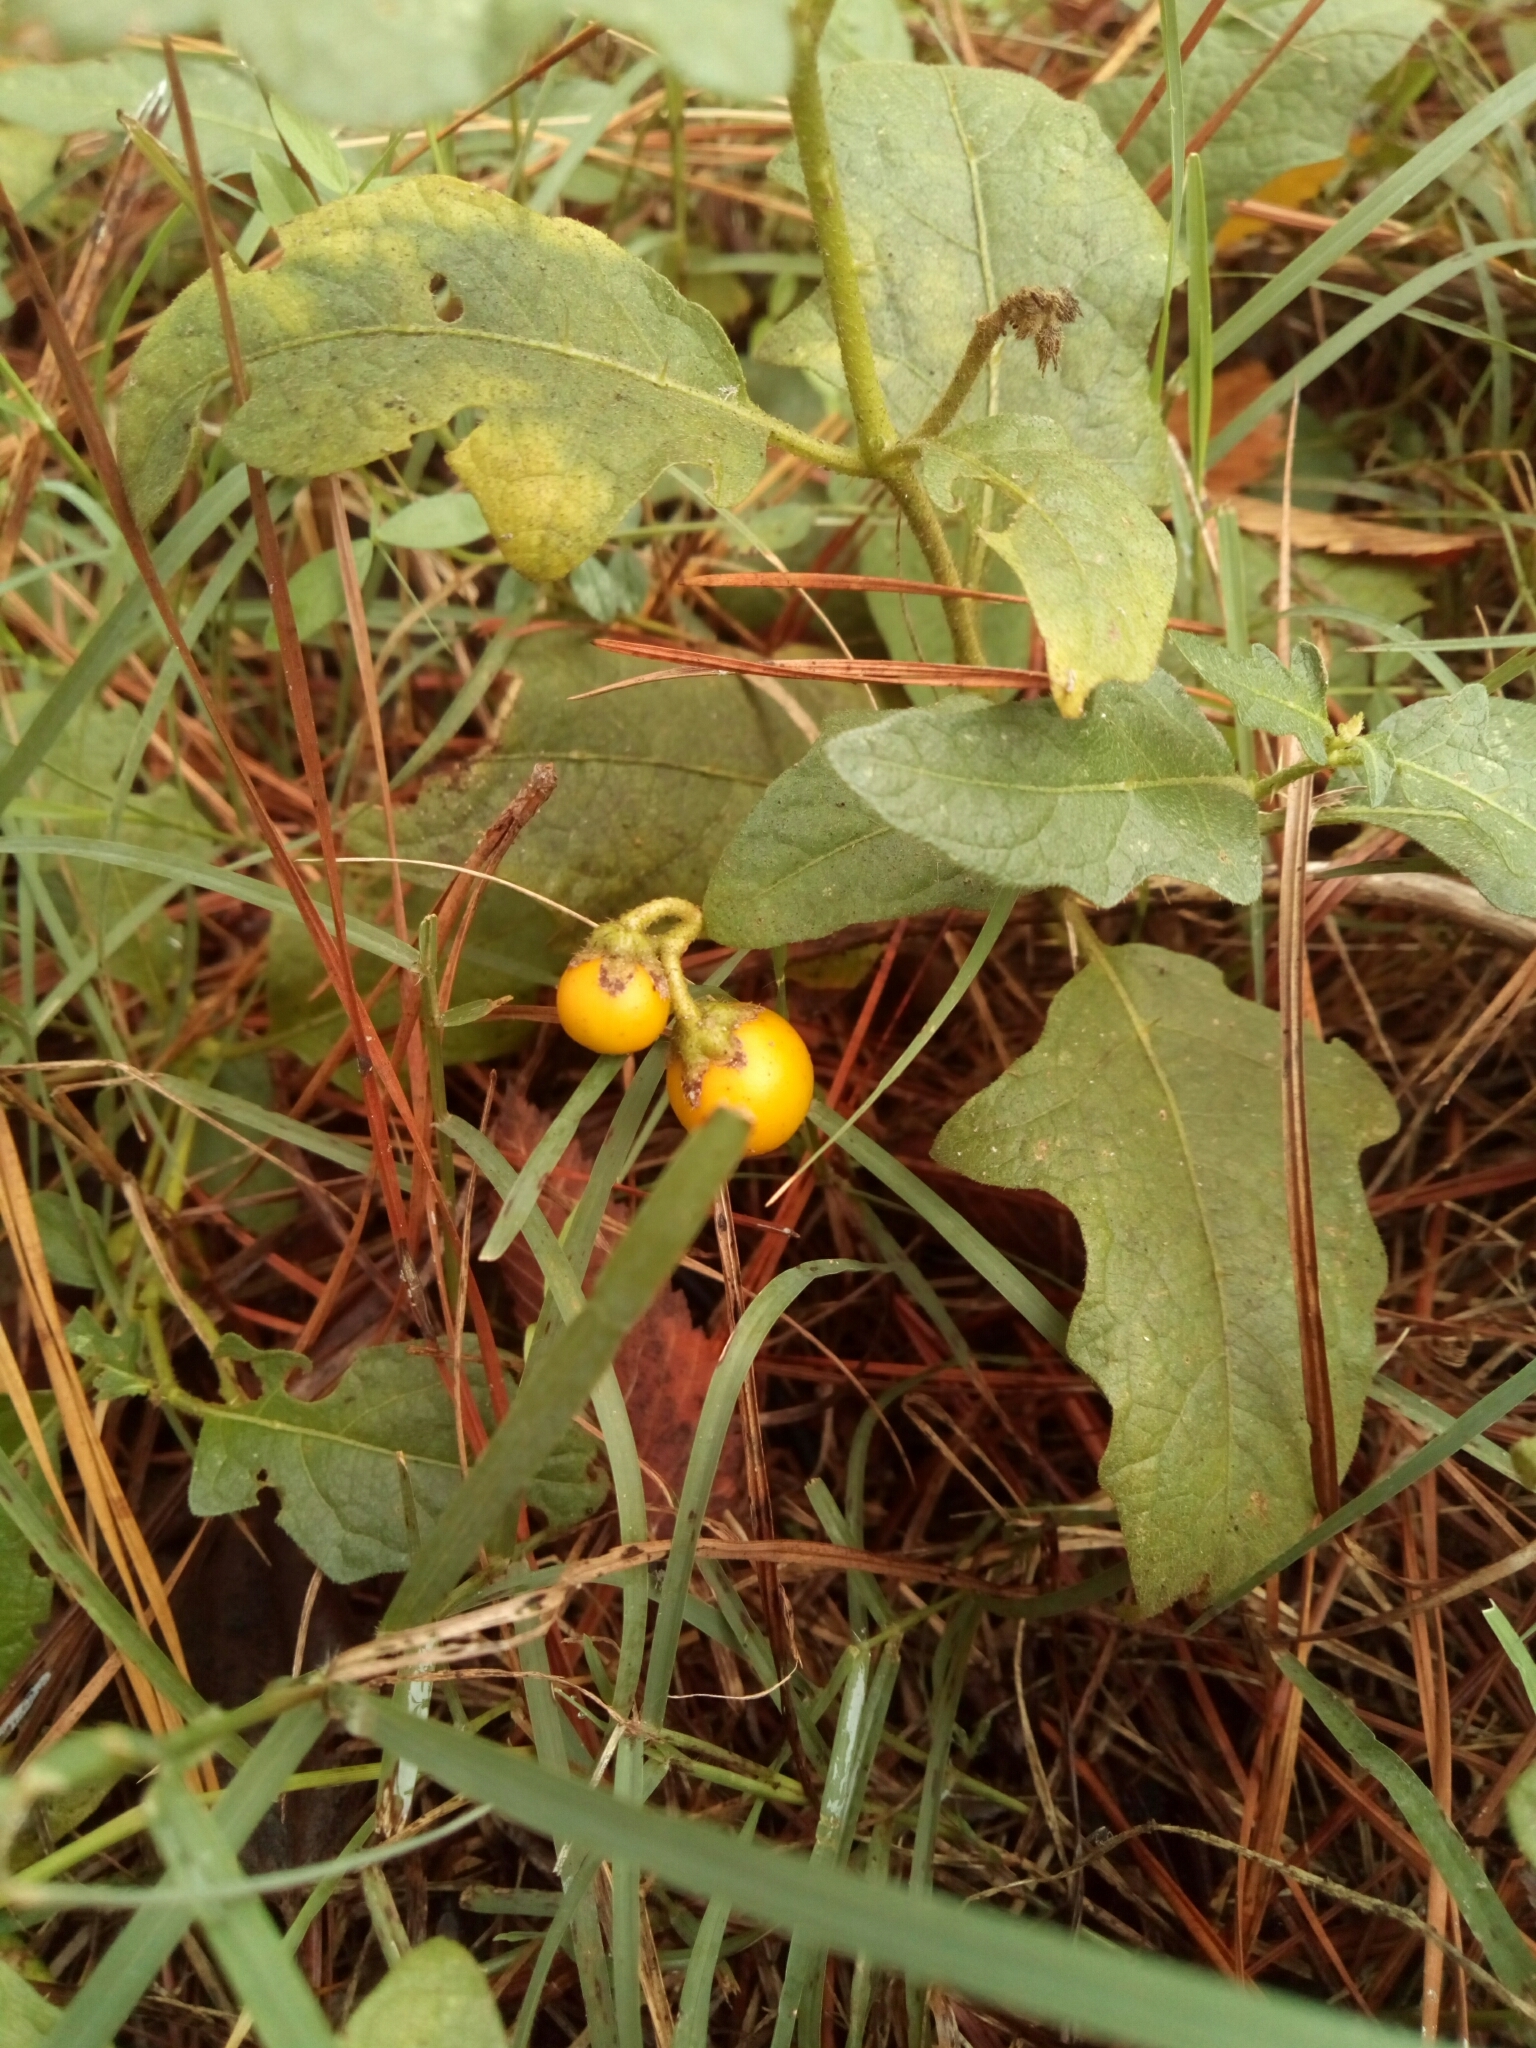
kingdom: Plantae
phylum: Tracheophyta
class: Magnoliopsida
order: Solanales
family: Solanaceae
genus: Solanum
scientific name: Solanum carolinense
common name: Horse-nettle
